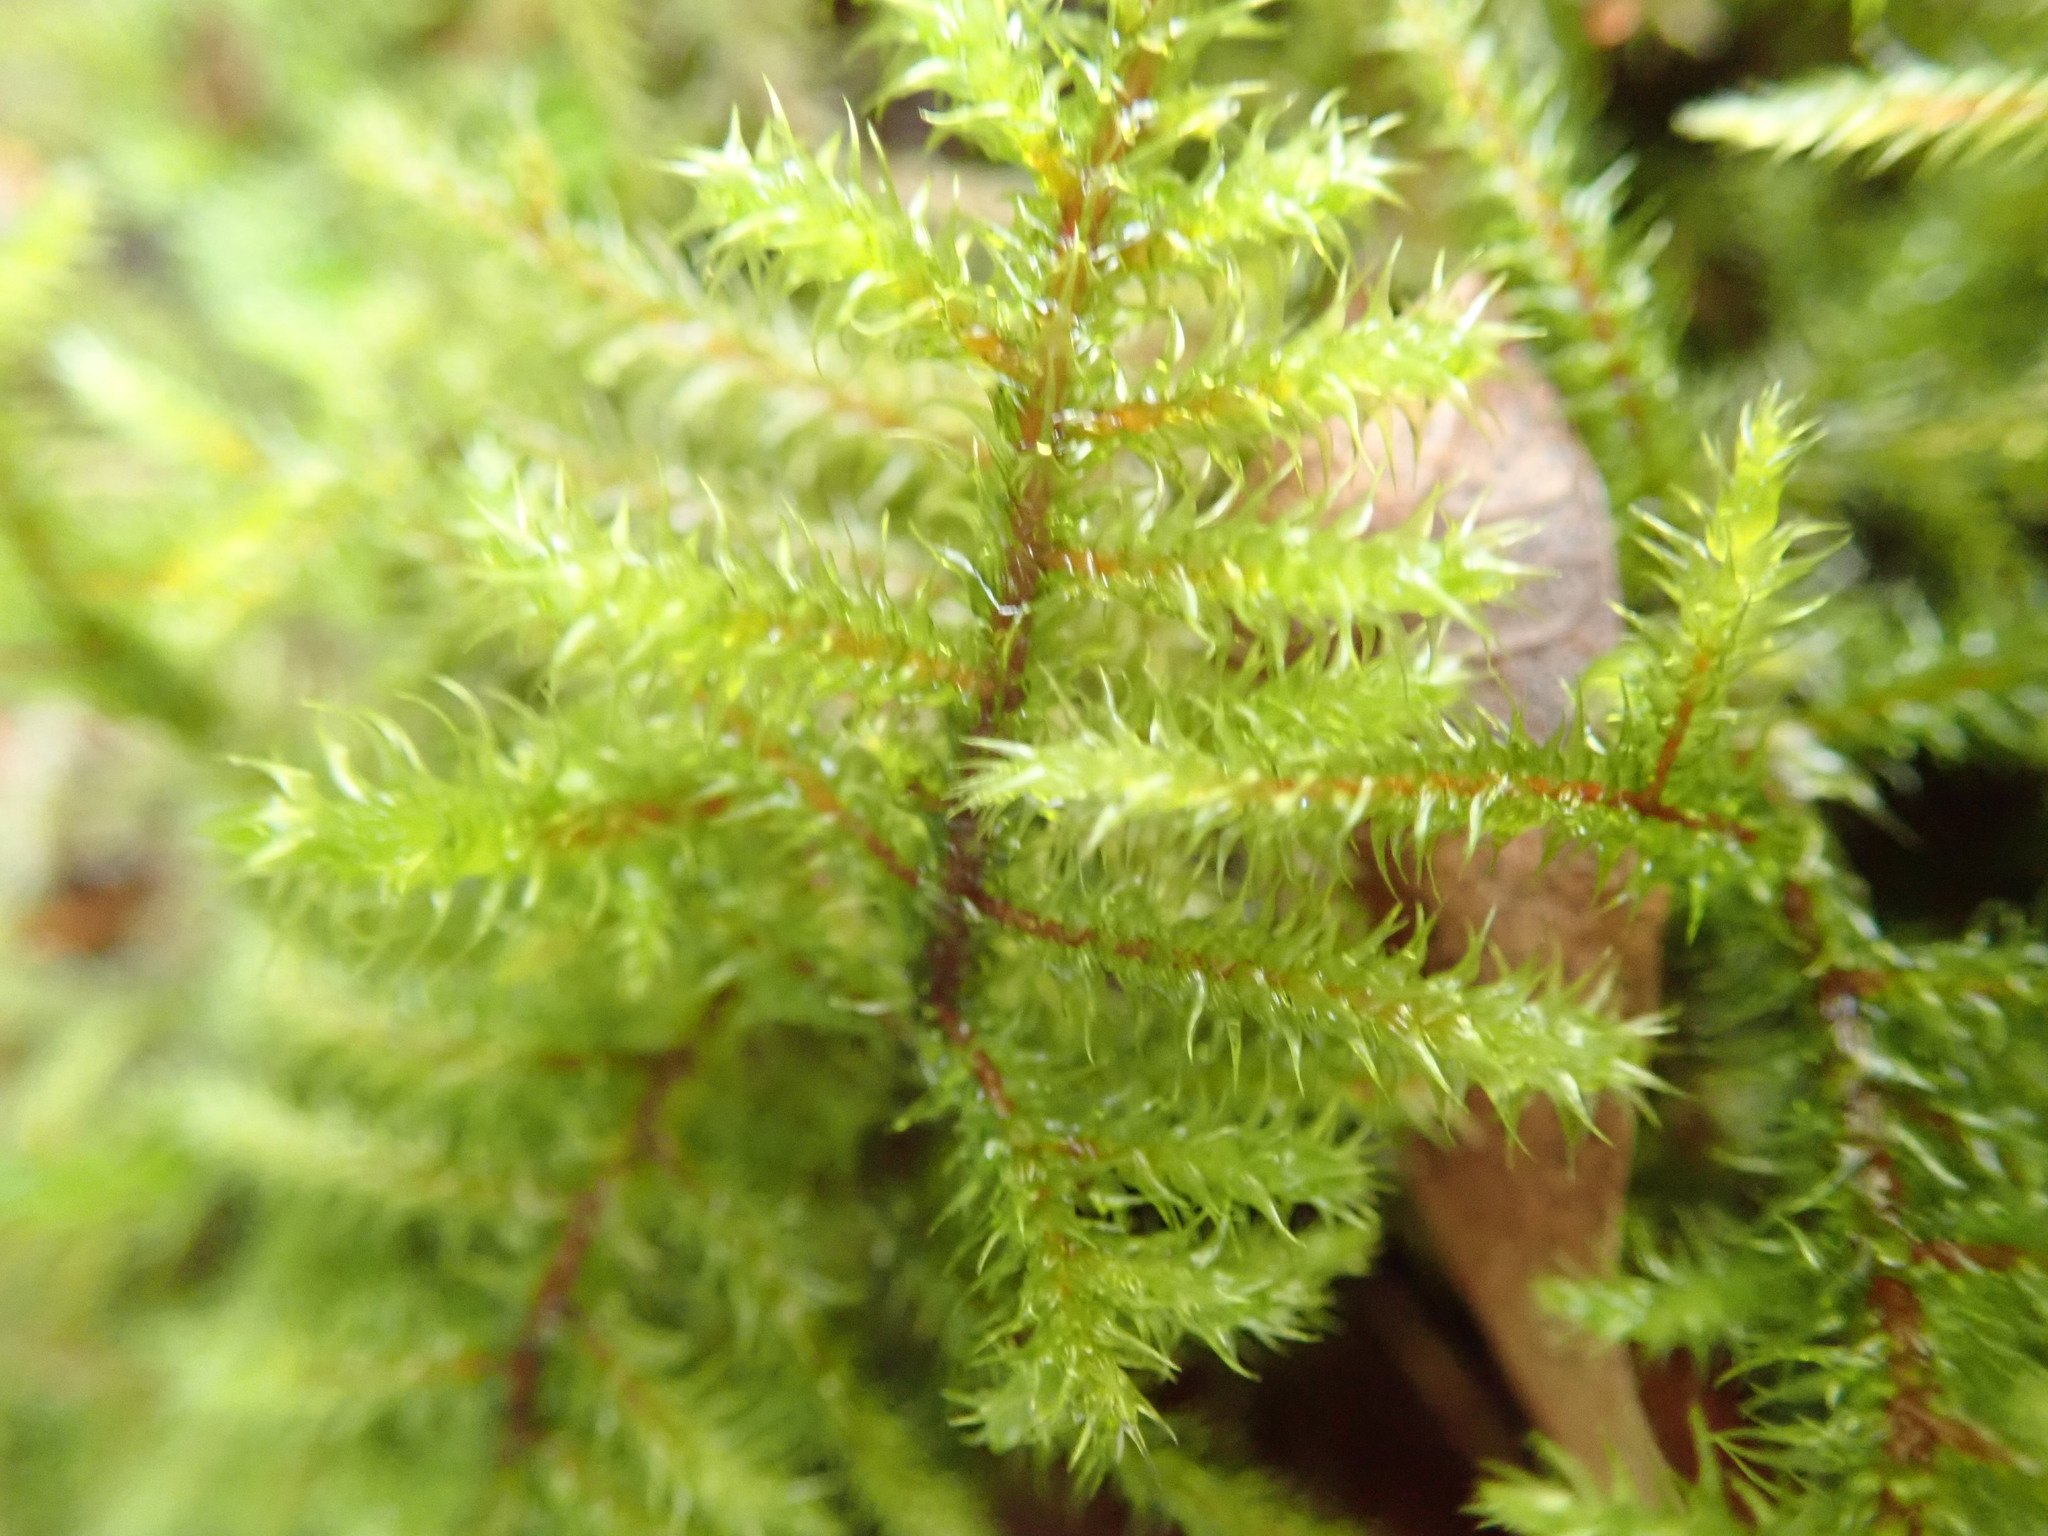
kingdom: Plantae
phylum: Bryophyta
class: Bryopsida
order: Hypnales
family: Hylocomiaceae
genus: Rhytidiadelphus
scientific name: Rhytidiadelphus loreus
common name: Lanky moss
